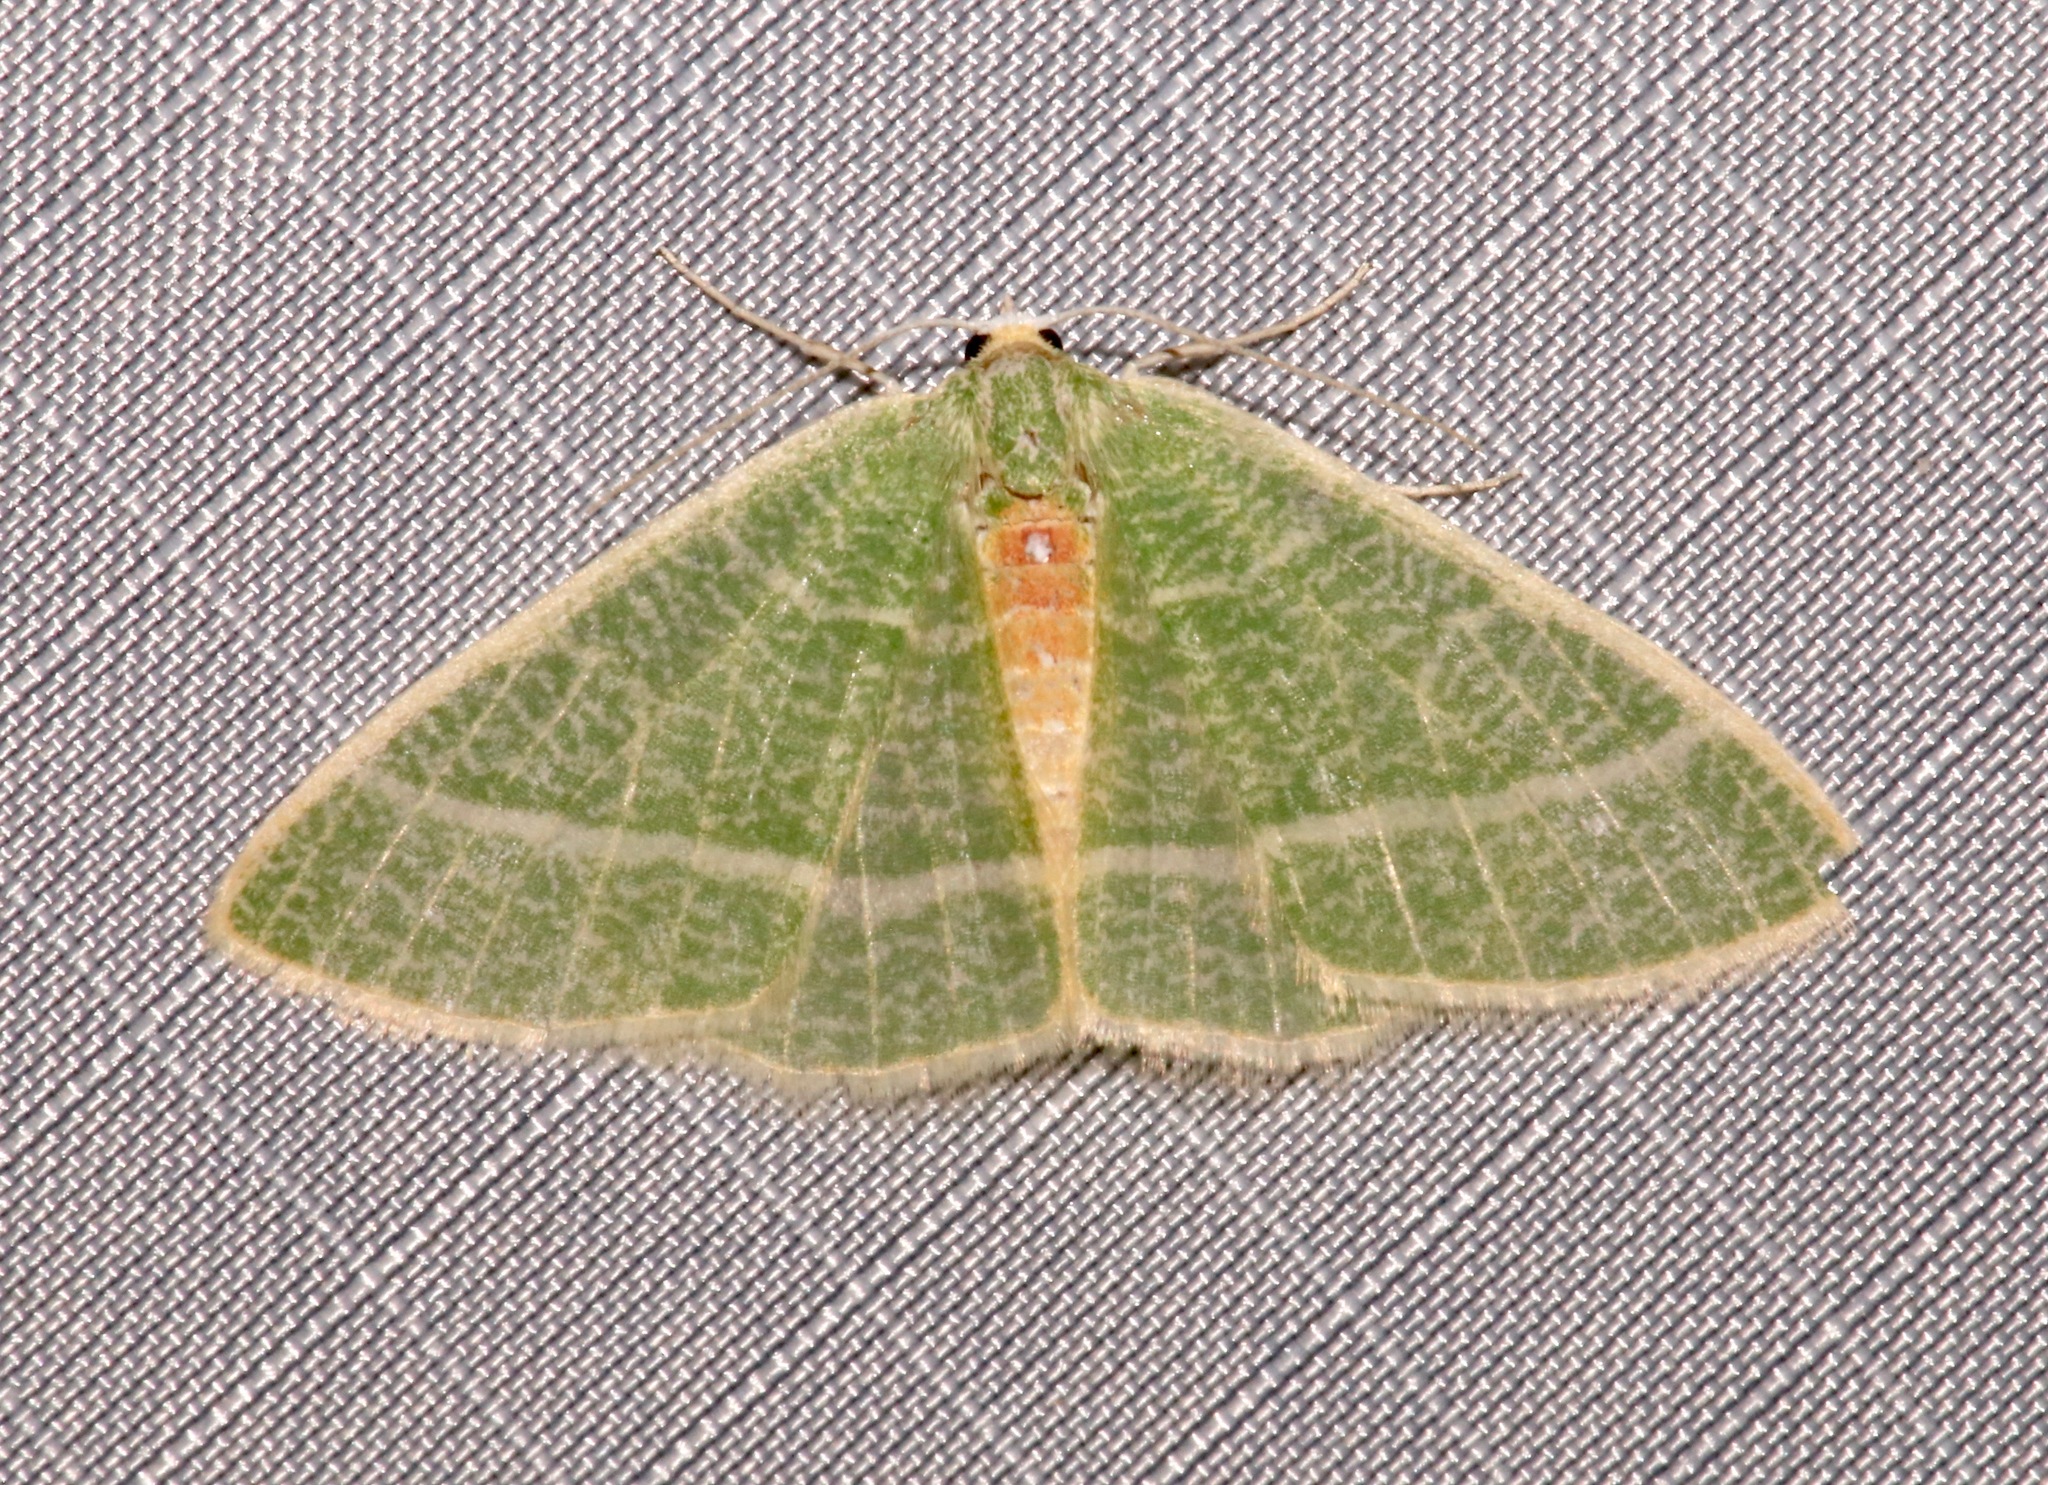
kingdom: Animalia
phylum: Arthropoda
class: Insecta
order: Lepidoptera
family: Geometridae
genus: Nemoria
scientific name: Nemoria arizonaria
